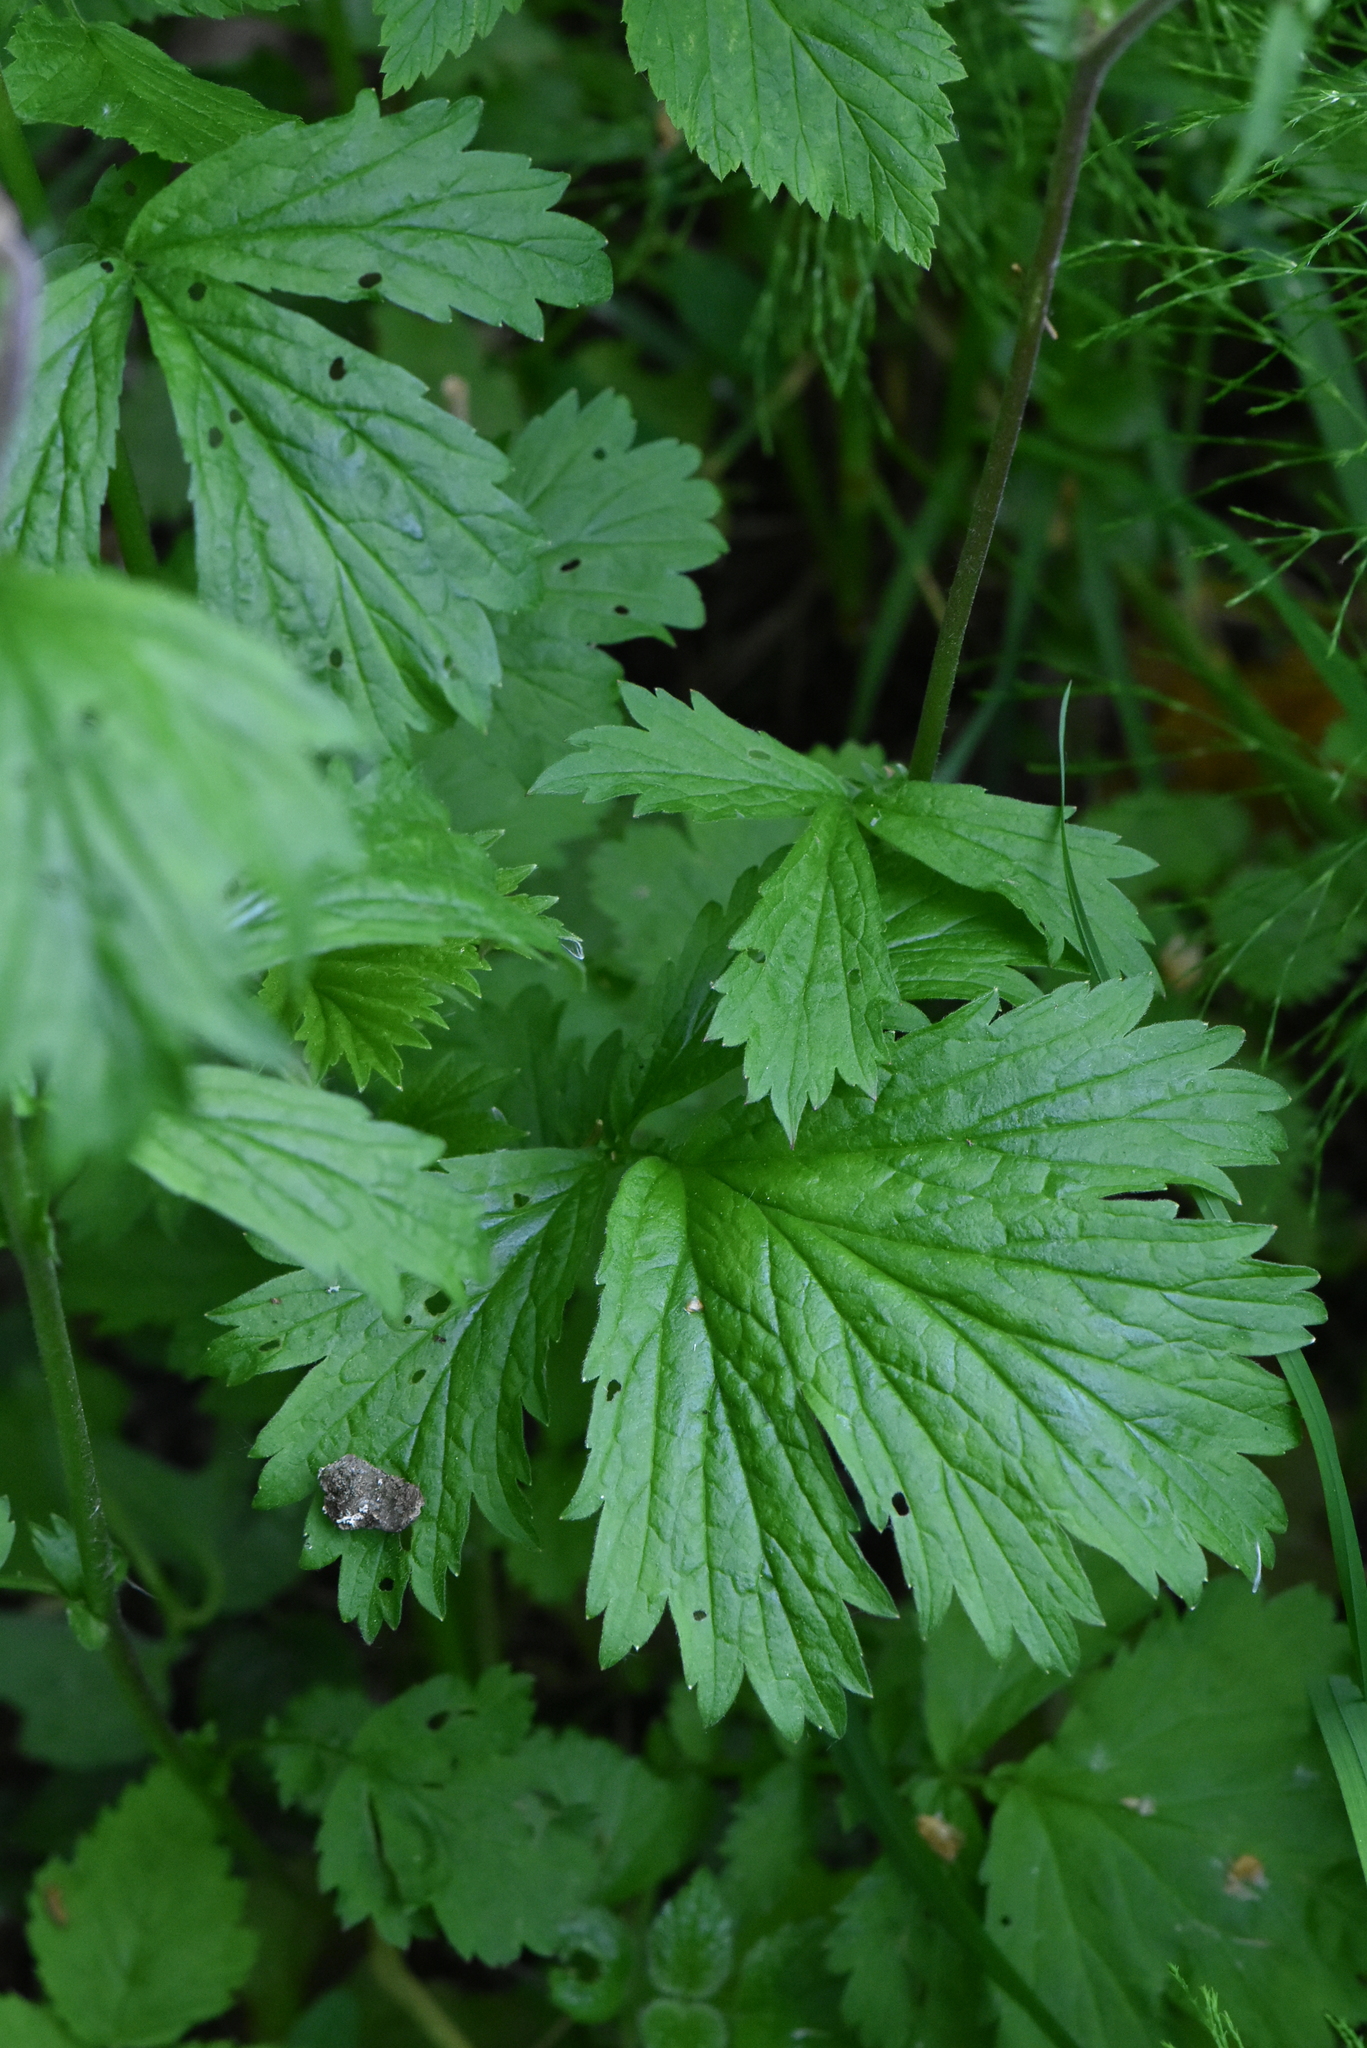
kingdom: Plantae
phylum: Tracheophyta
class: Magnoliopsida
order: Rosales
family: Rosaceae
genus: Geum
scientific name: Geum rivale
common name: Water avens
